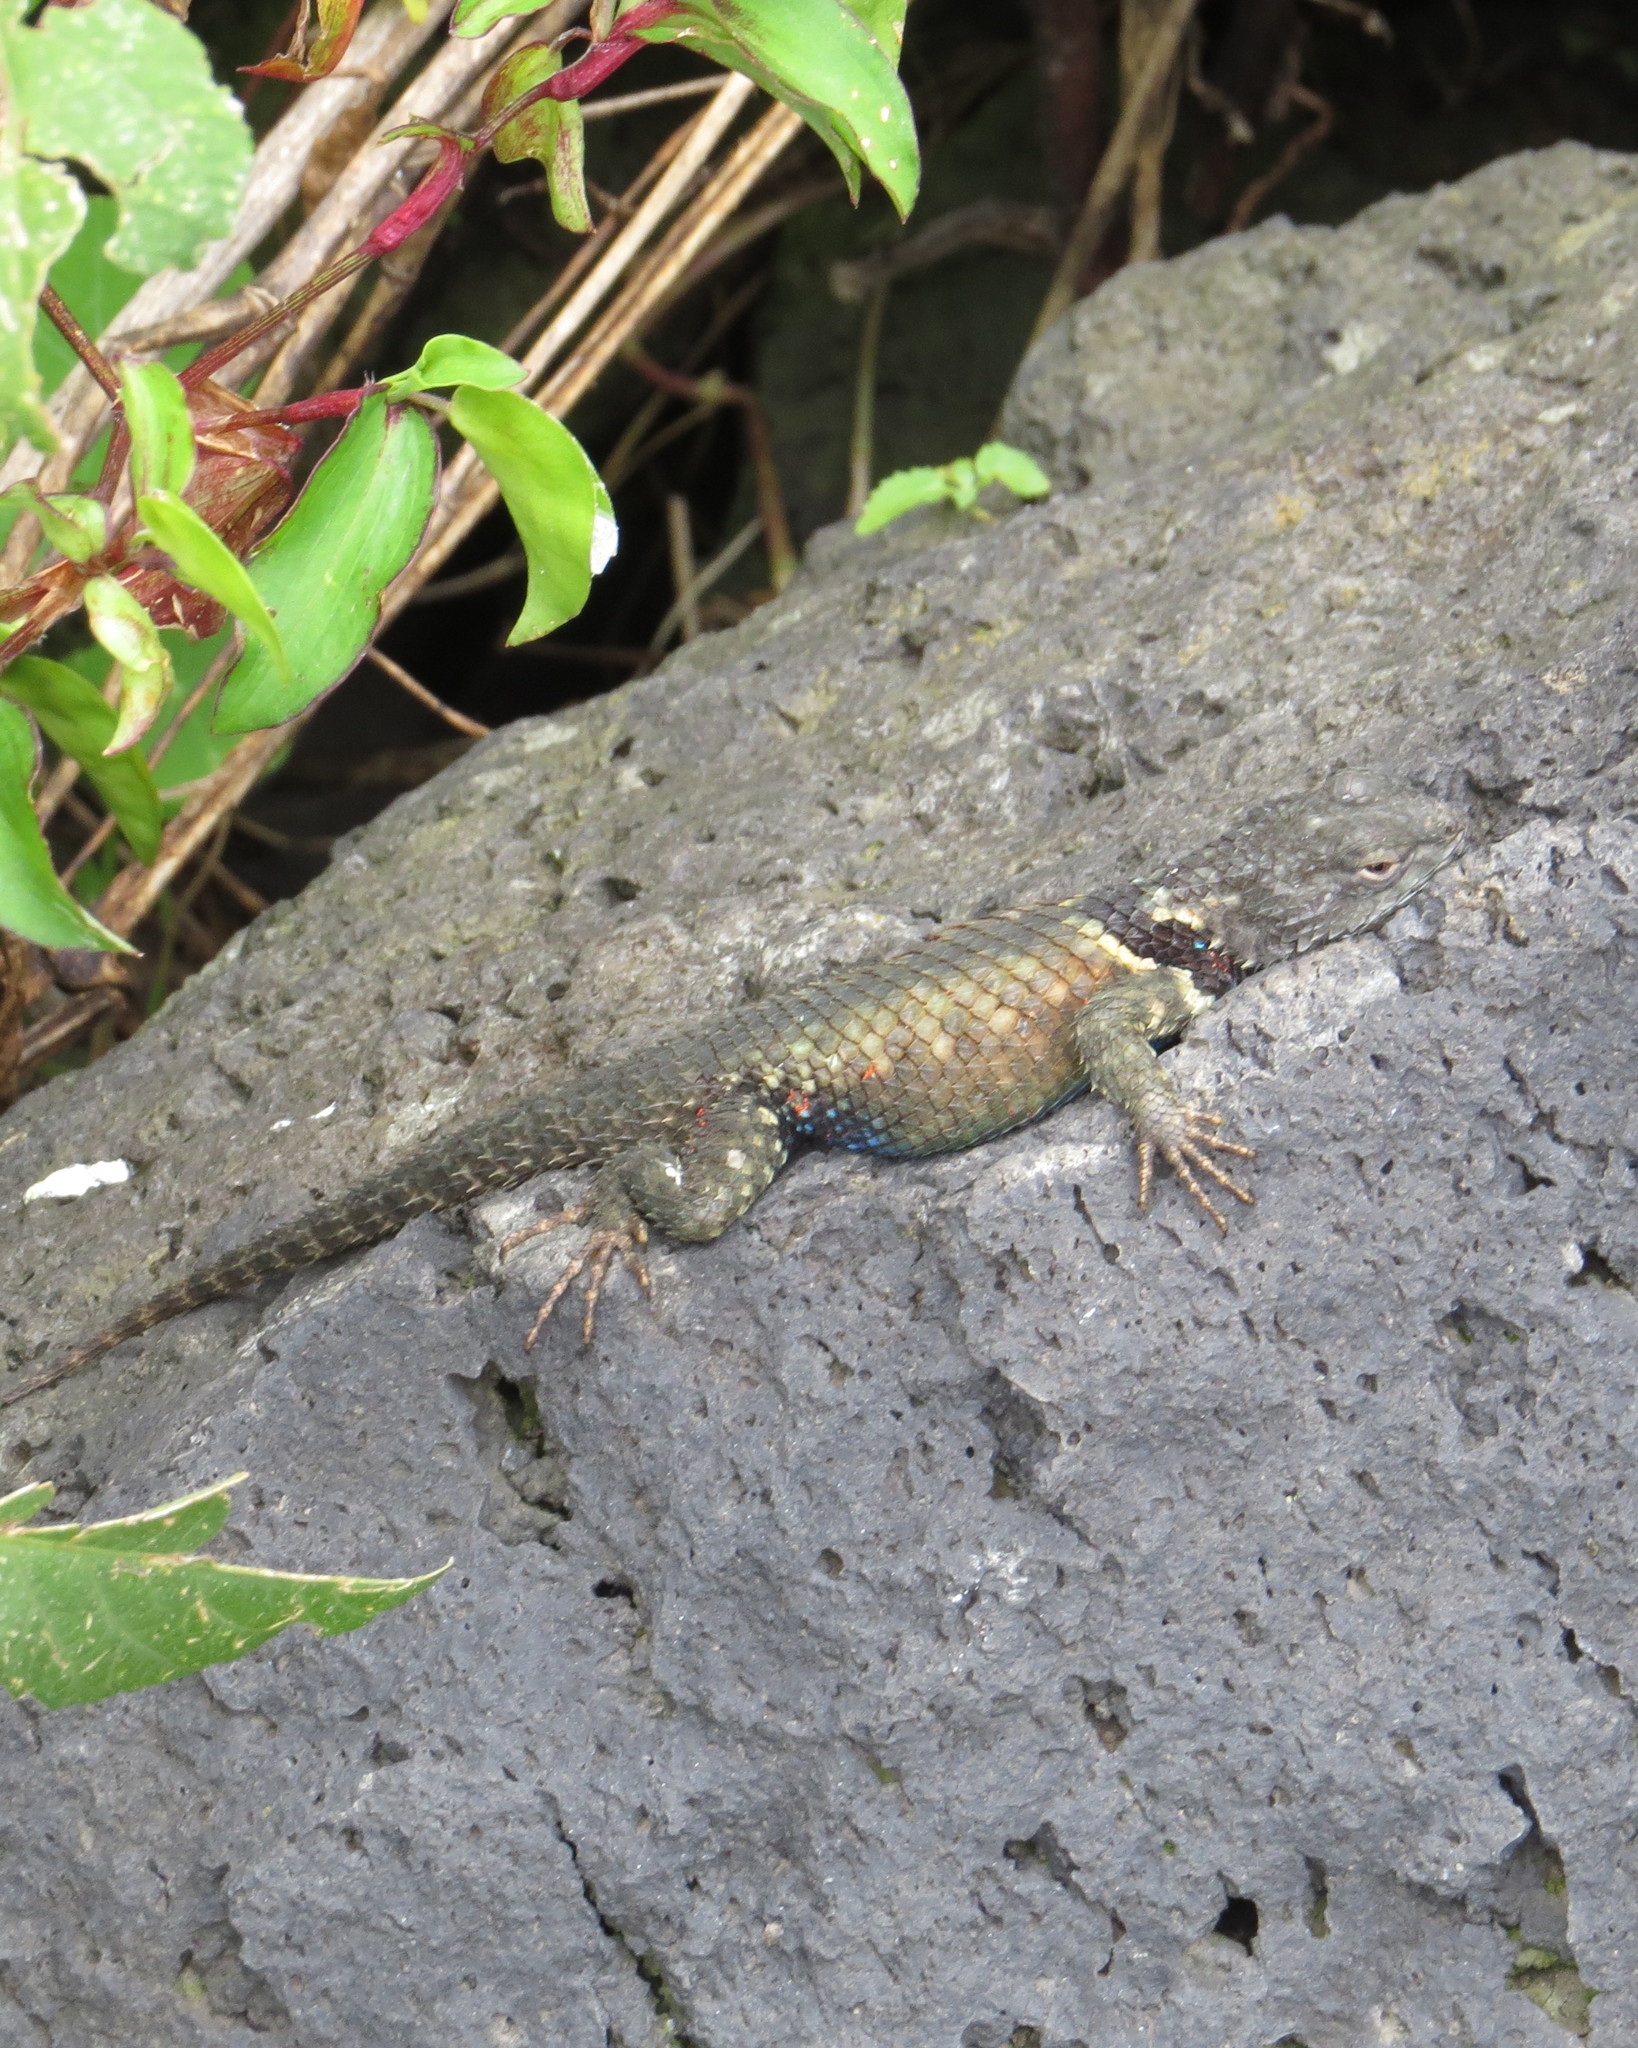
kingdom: Animalia
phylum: Chordata
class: Squamata
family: Phrynosomatidae
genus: Sceloporus
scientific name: Sceloporus torquatus
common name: Central plateau torquate lizard [melanogaster]
